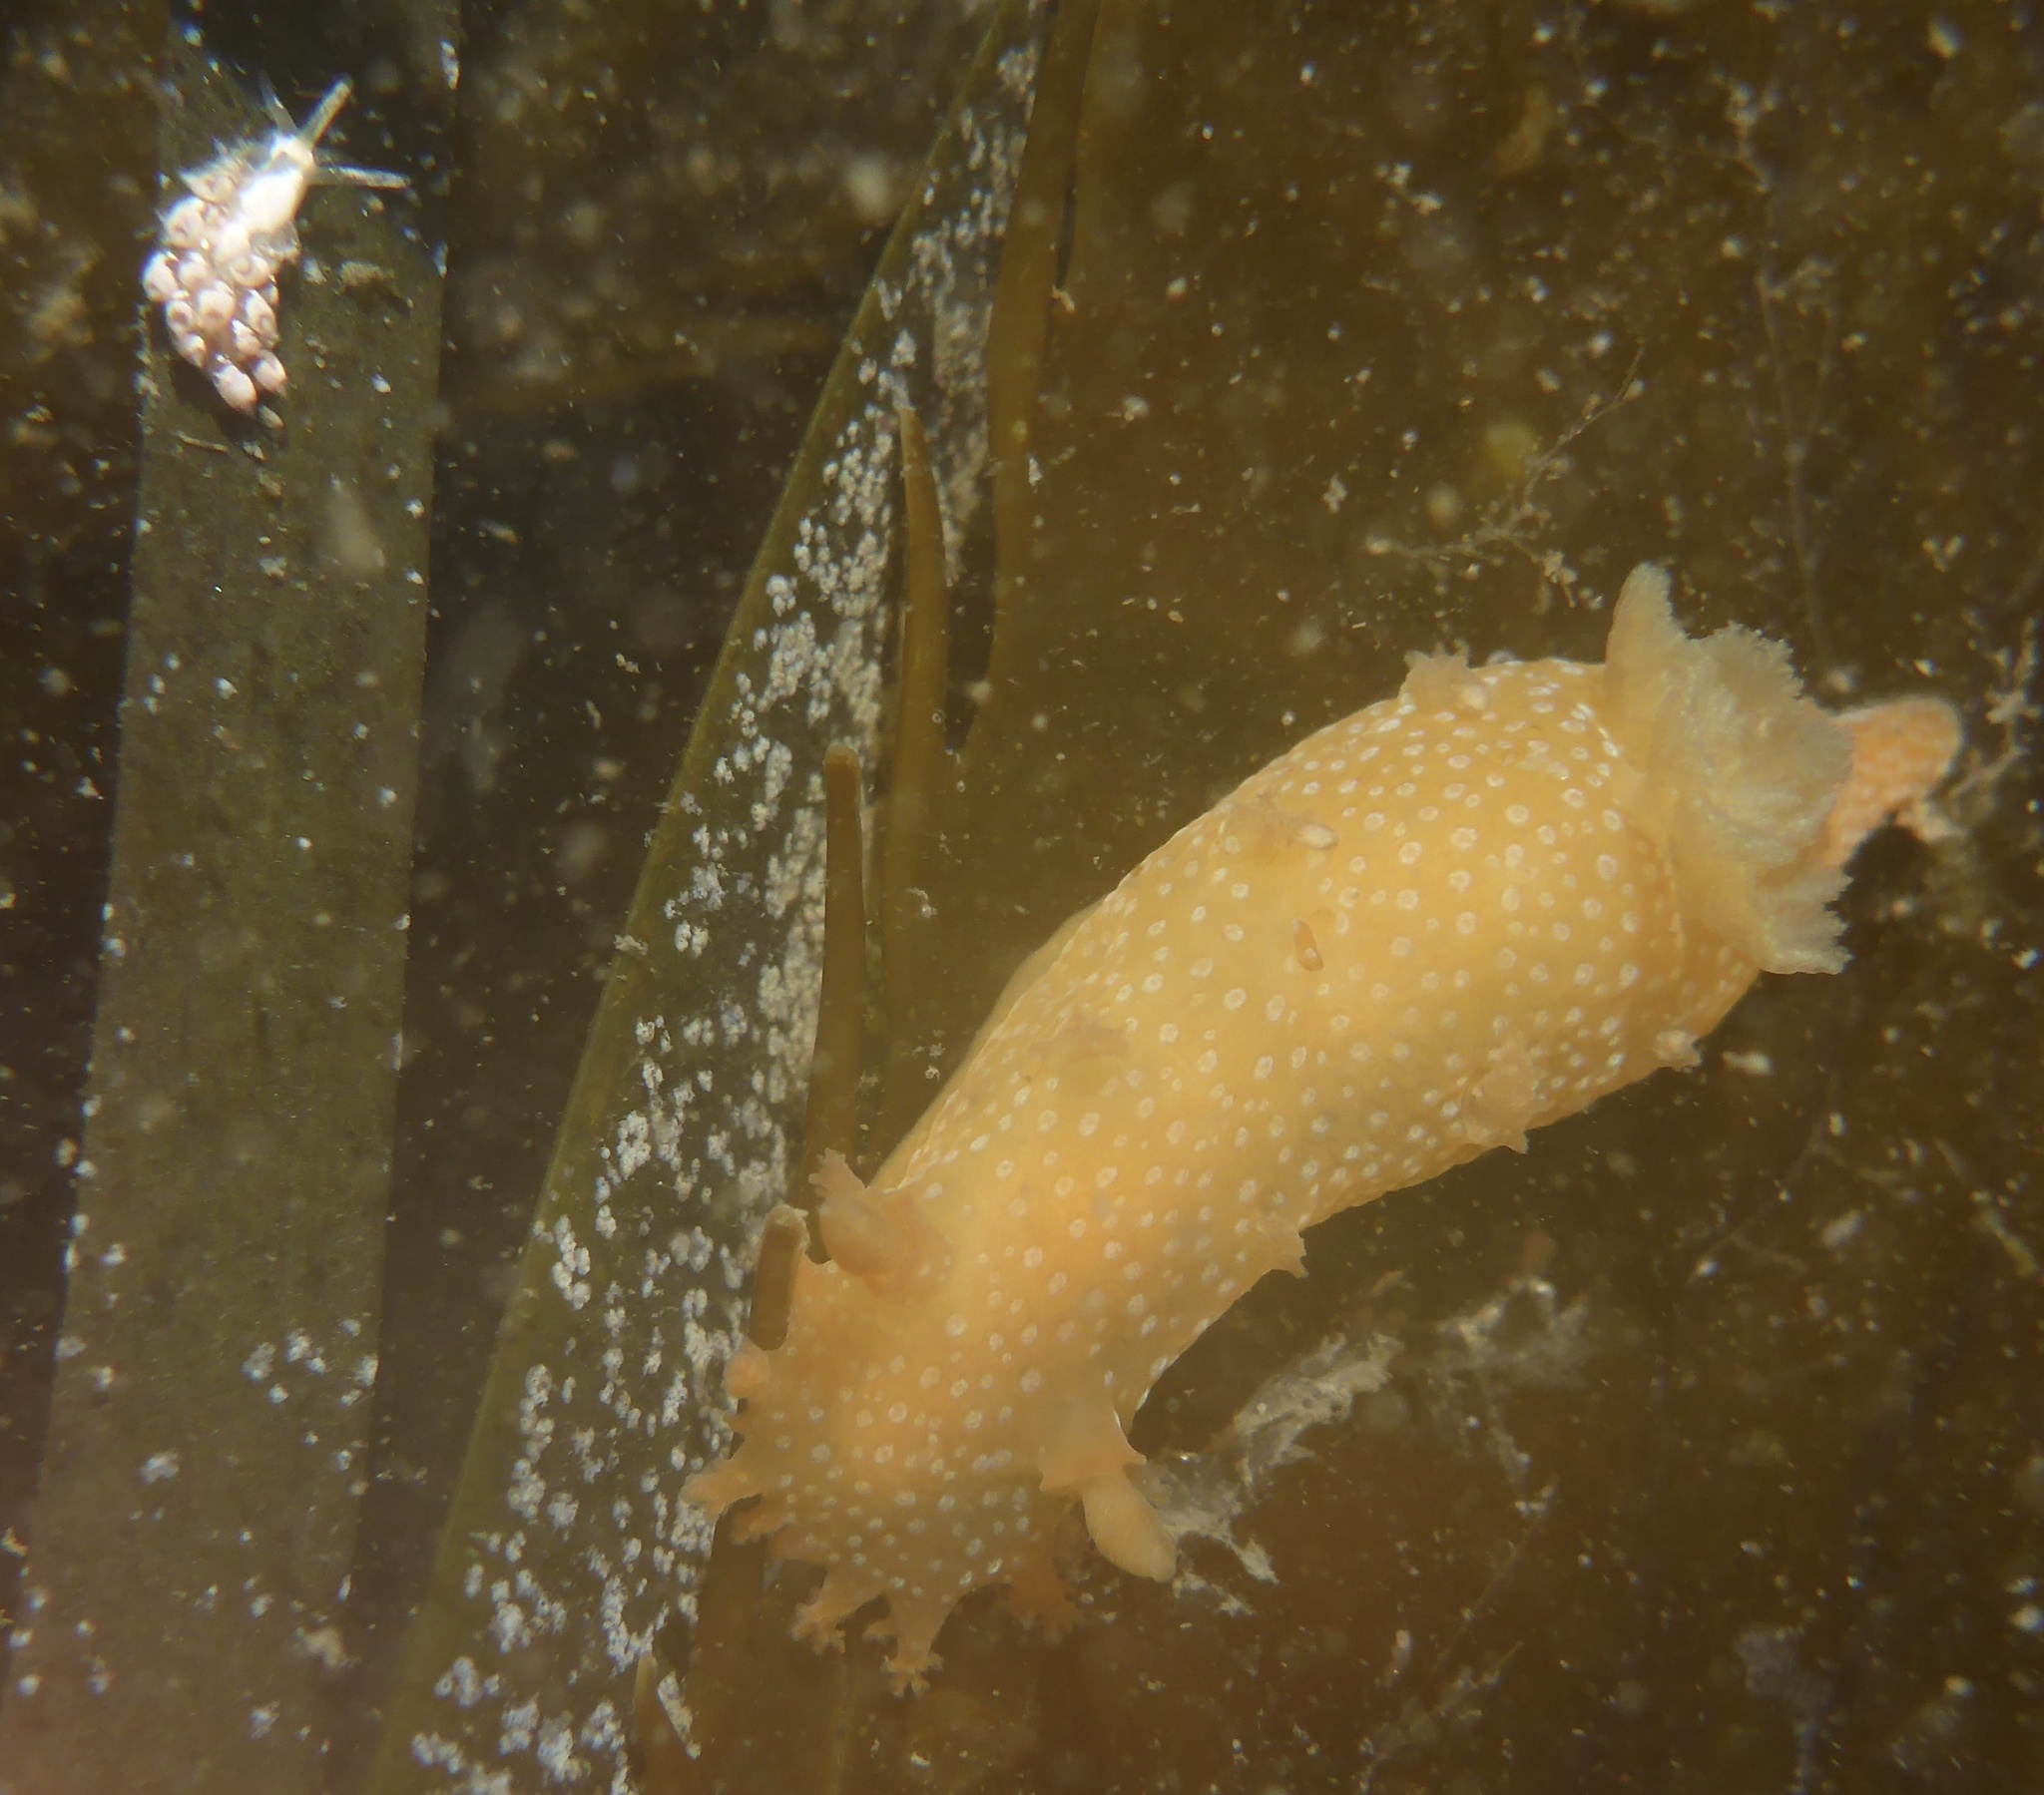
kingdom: Animalia
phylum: Mollusca
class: Gastropoda
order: Nudibranchia
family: Polyceridae
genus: Triopha
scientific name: Triopha maculata
